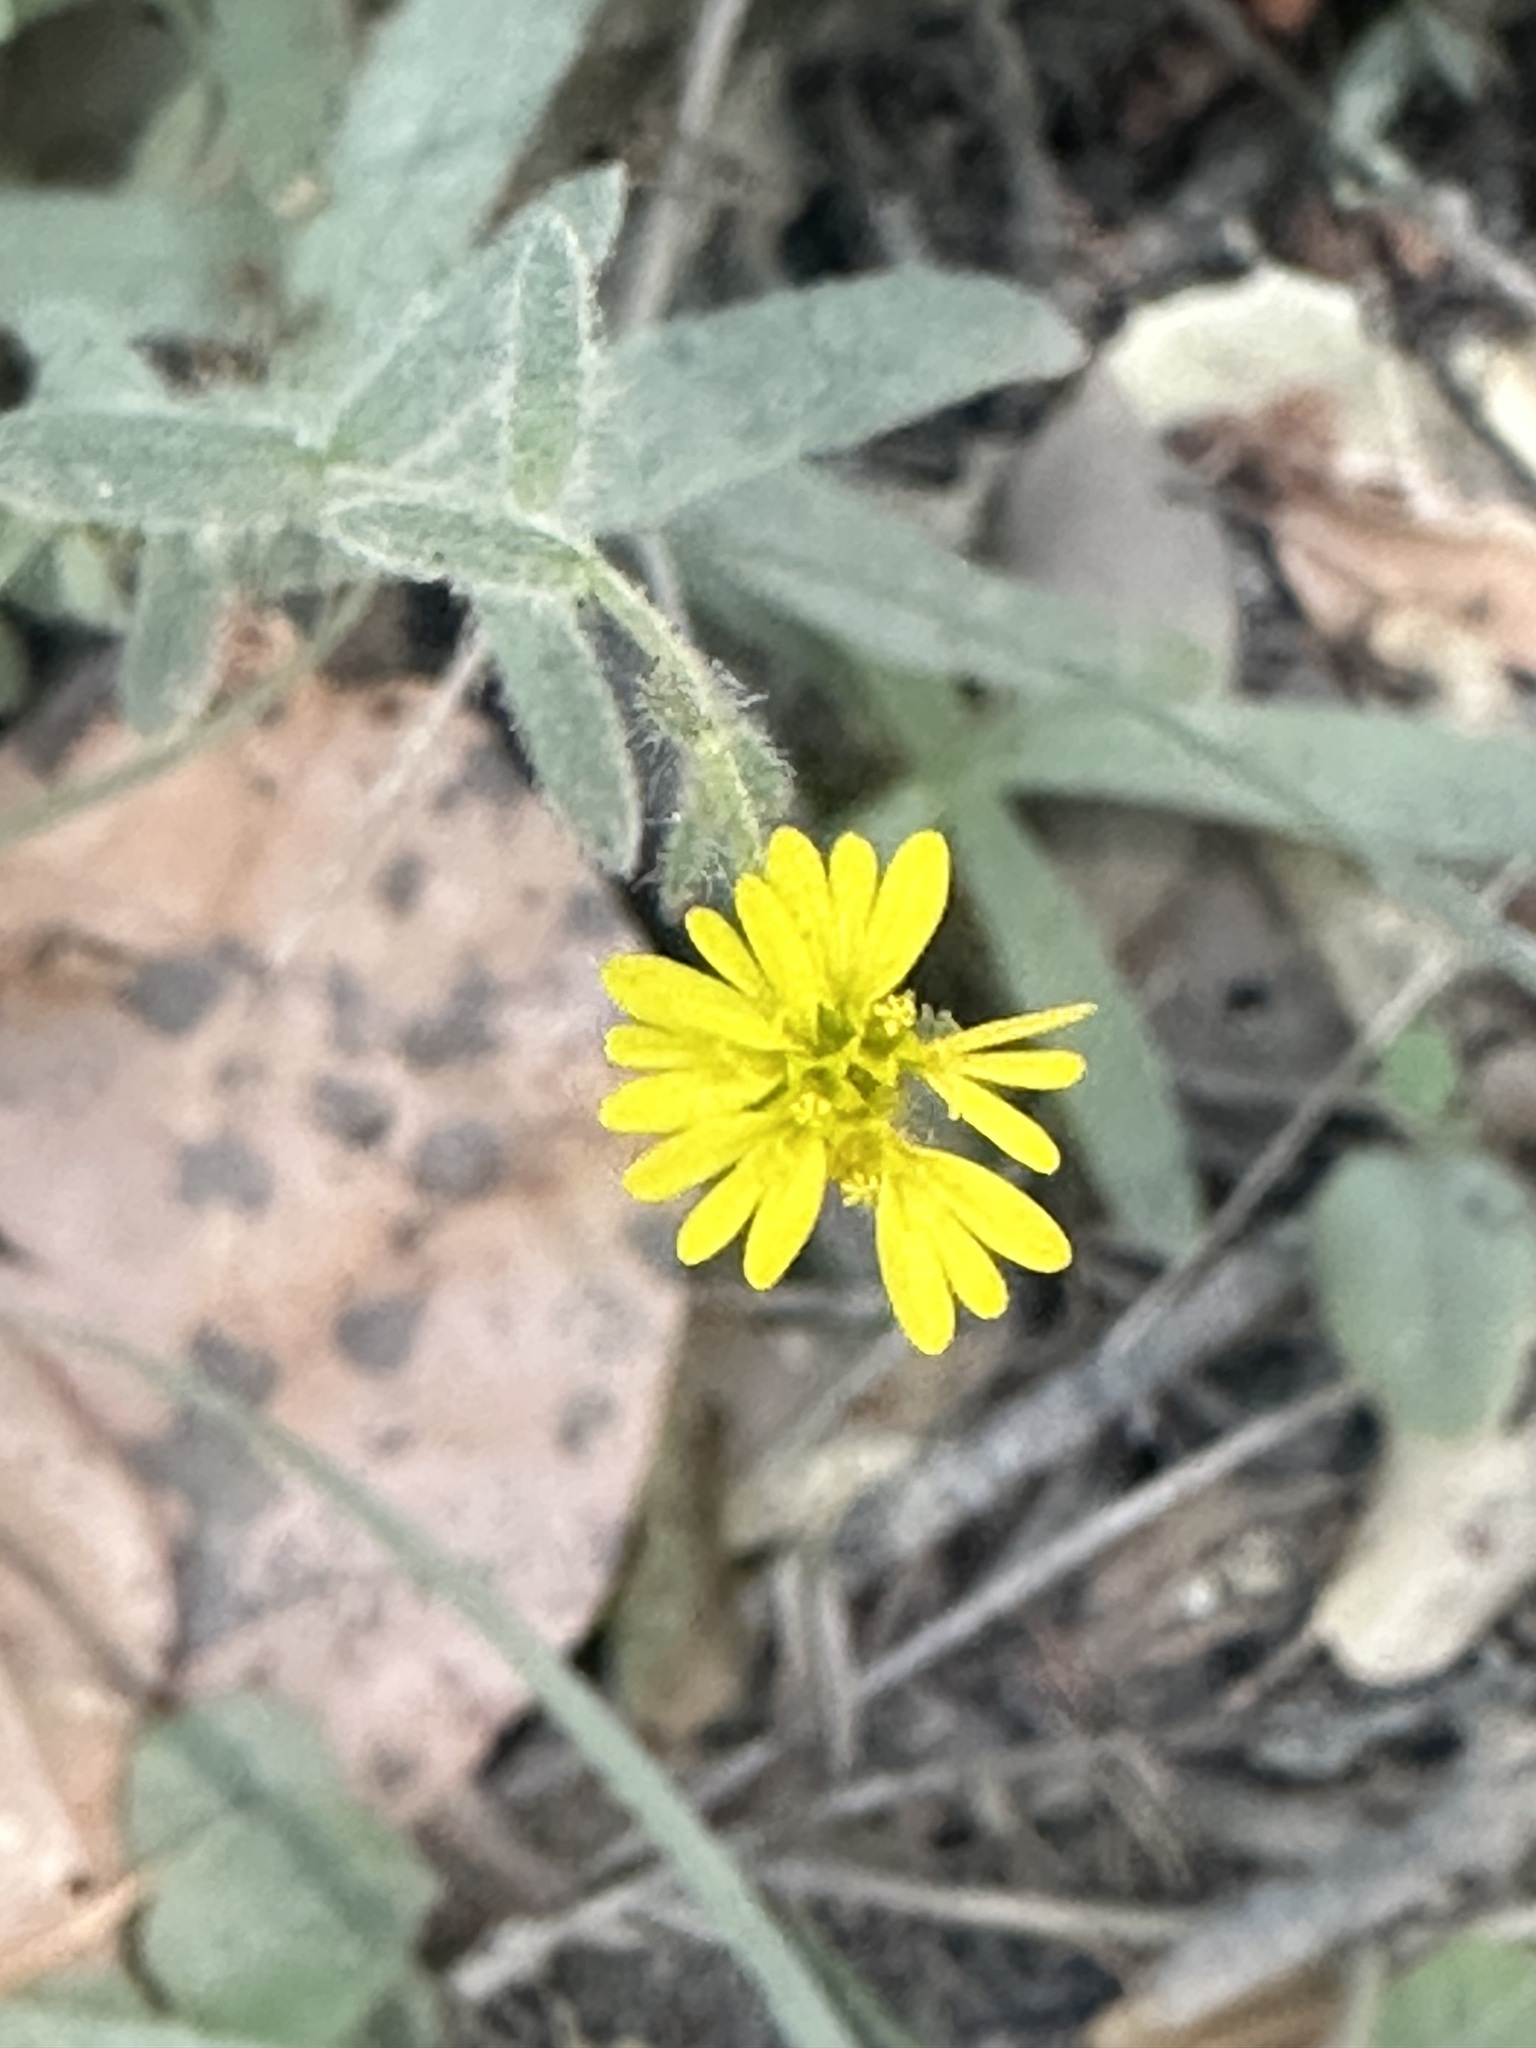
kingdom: Plantae
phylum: Tracheophyta
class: Magnoliopsida
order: Asterales
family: Asteraceae
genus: Anisocarpus
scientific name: Anisocarpus madioides
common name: Woodland madia
